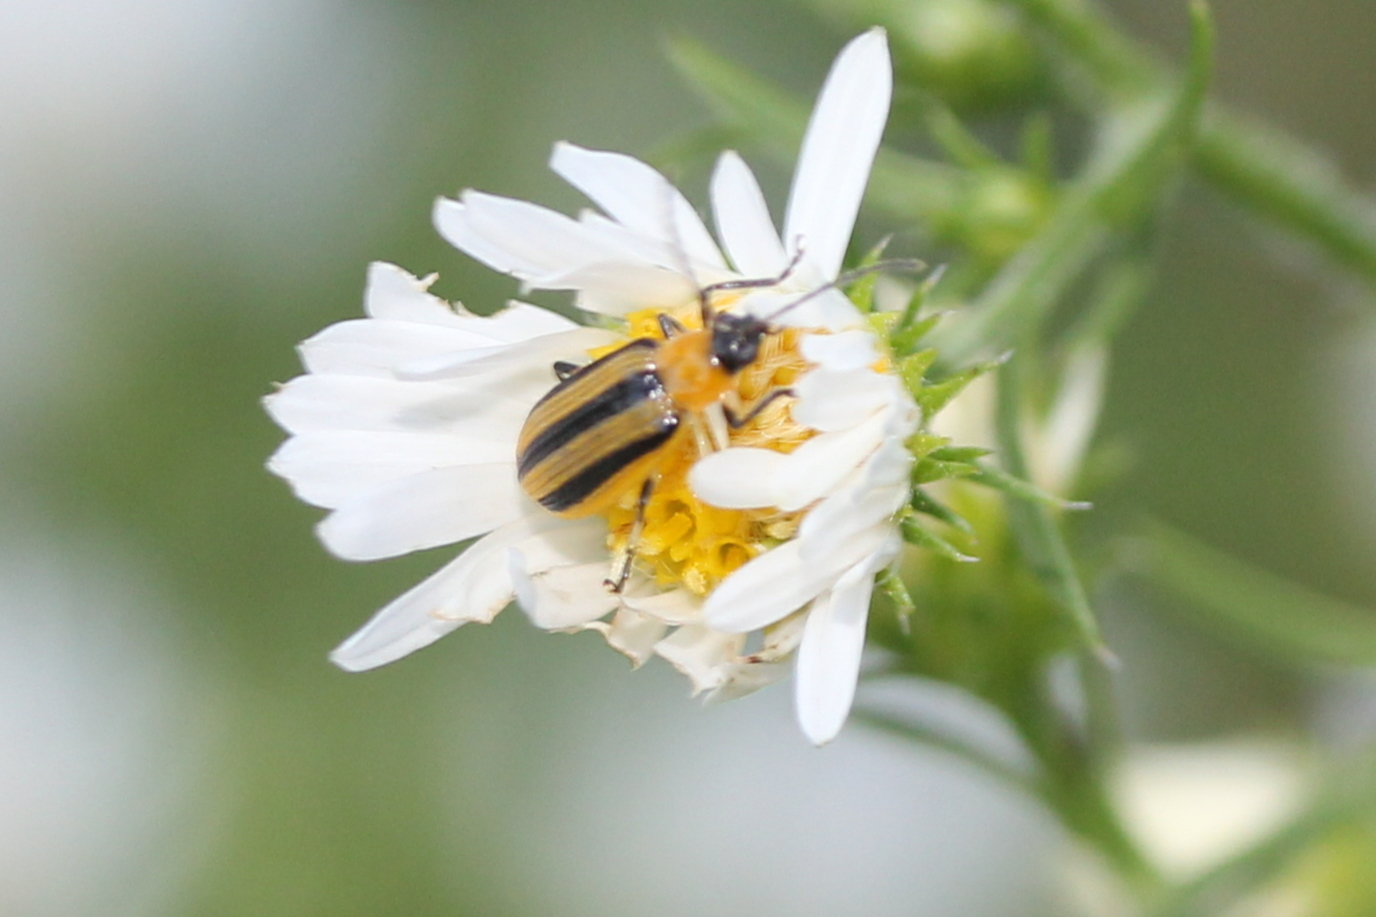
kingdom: Animalia
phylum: Arthropoda
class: Insecta
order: Coleoptera
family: Chrysomelidae
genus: Acalymma
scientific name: Acalymma vittatum
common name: Striped cucumber beetle
